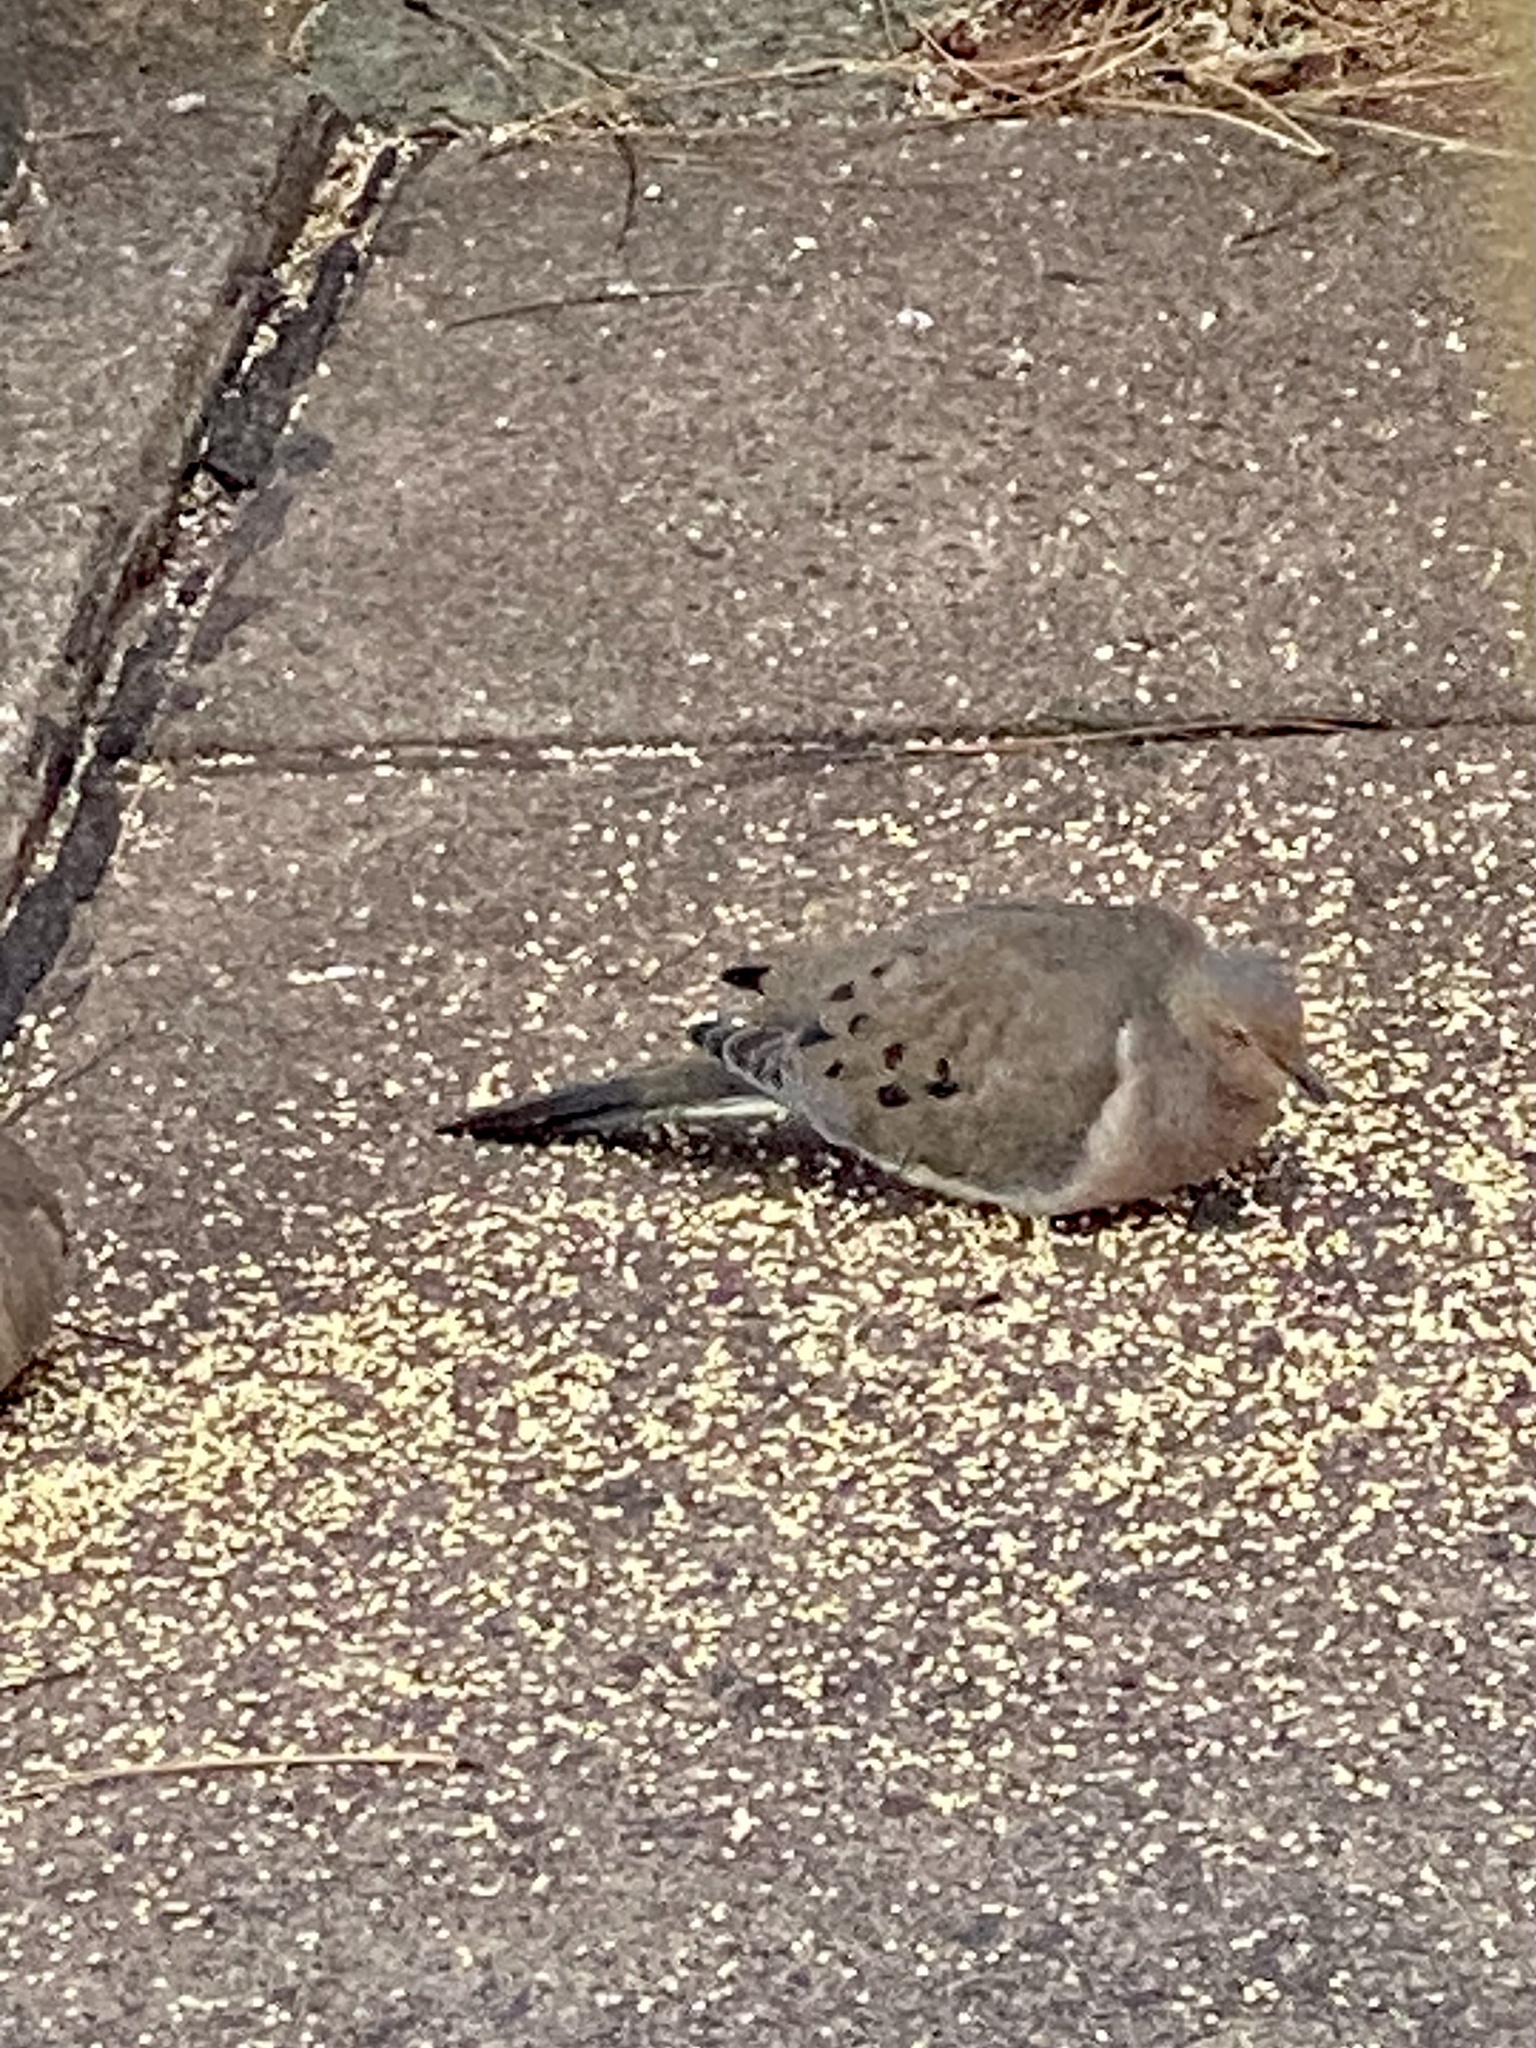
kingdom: Animalia
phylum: Chordata
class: Aves
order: Columbiformes
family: Columbidae
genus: Zenaida
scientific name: Zenaida macroura
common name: Mourning dove
